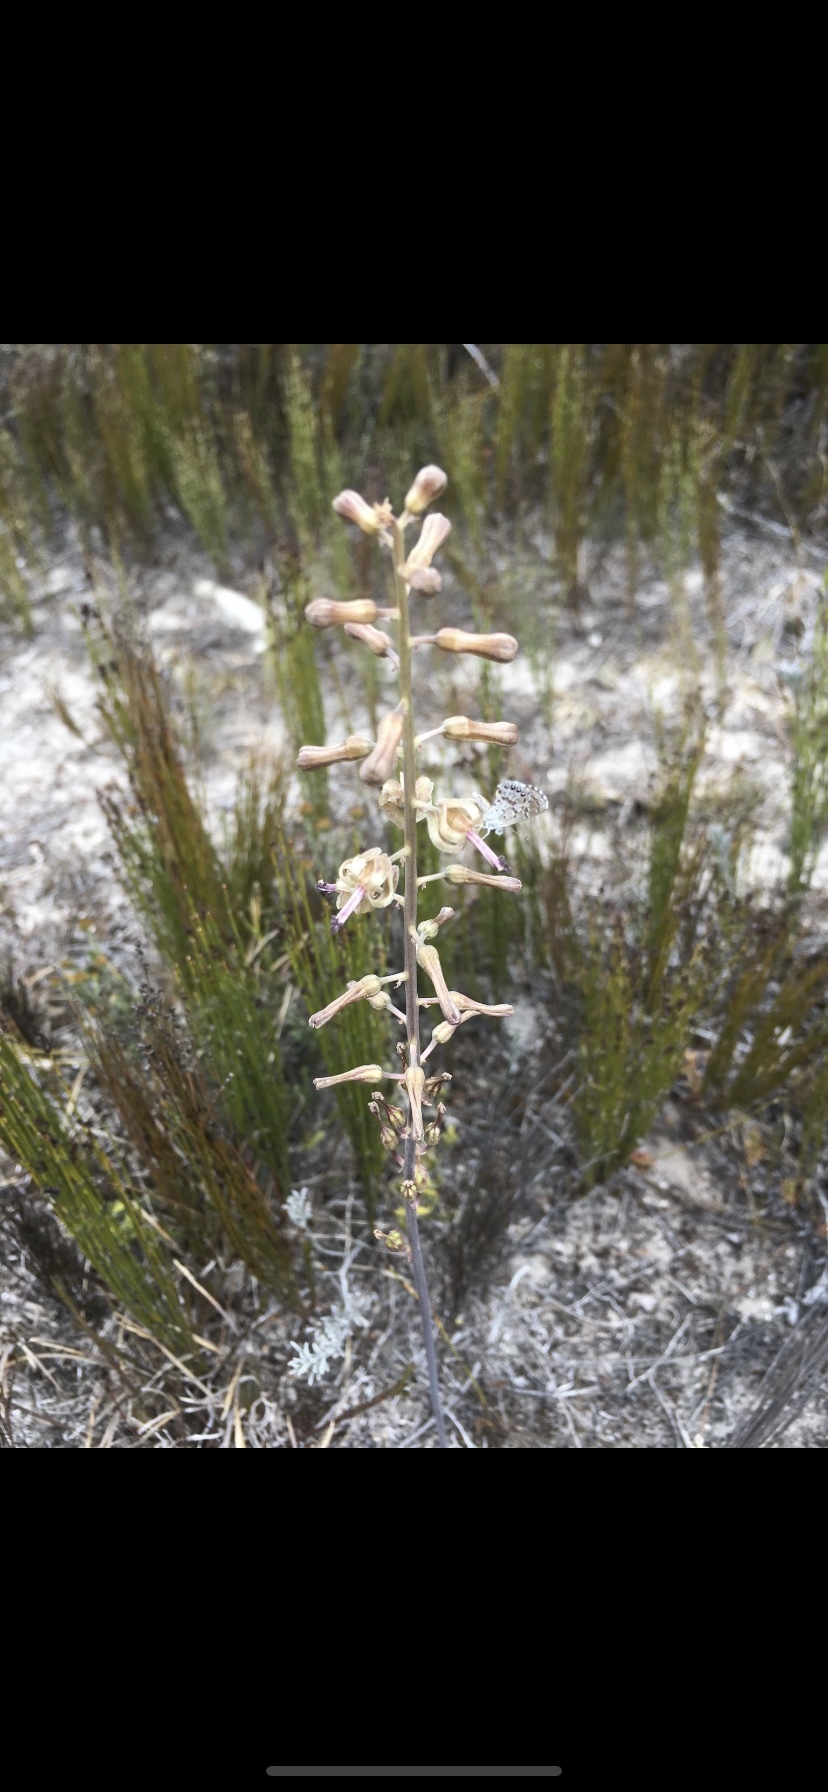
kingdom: Plantae
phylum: Tracheophyta
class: Liliopsida
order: Asparagales
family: Asparagaceae
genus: Drimia
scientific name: Drimia elata
